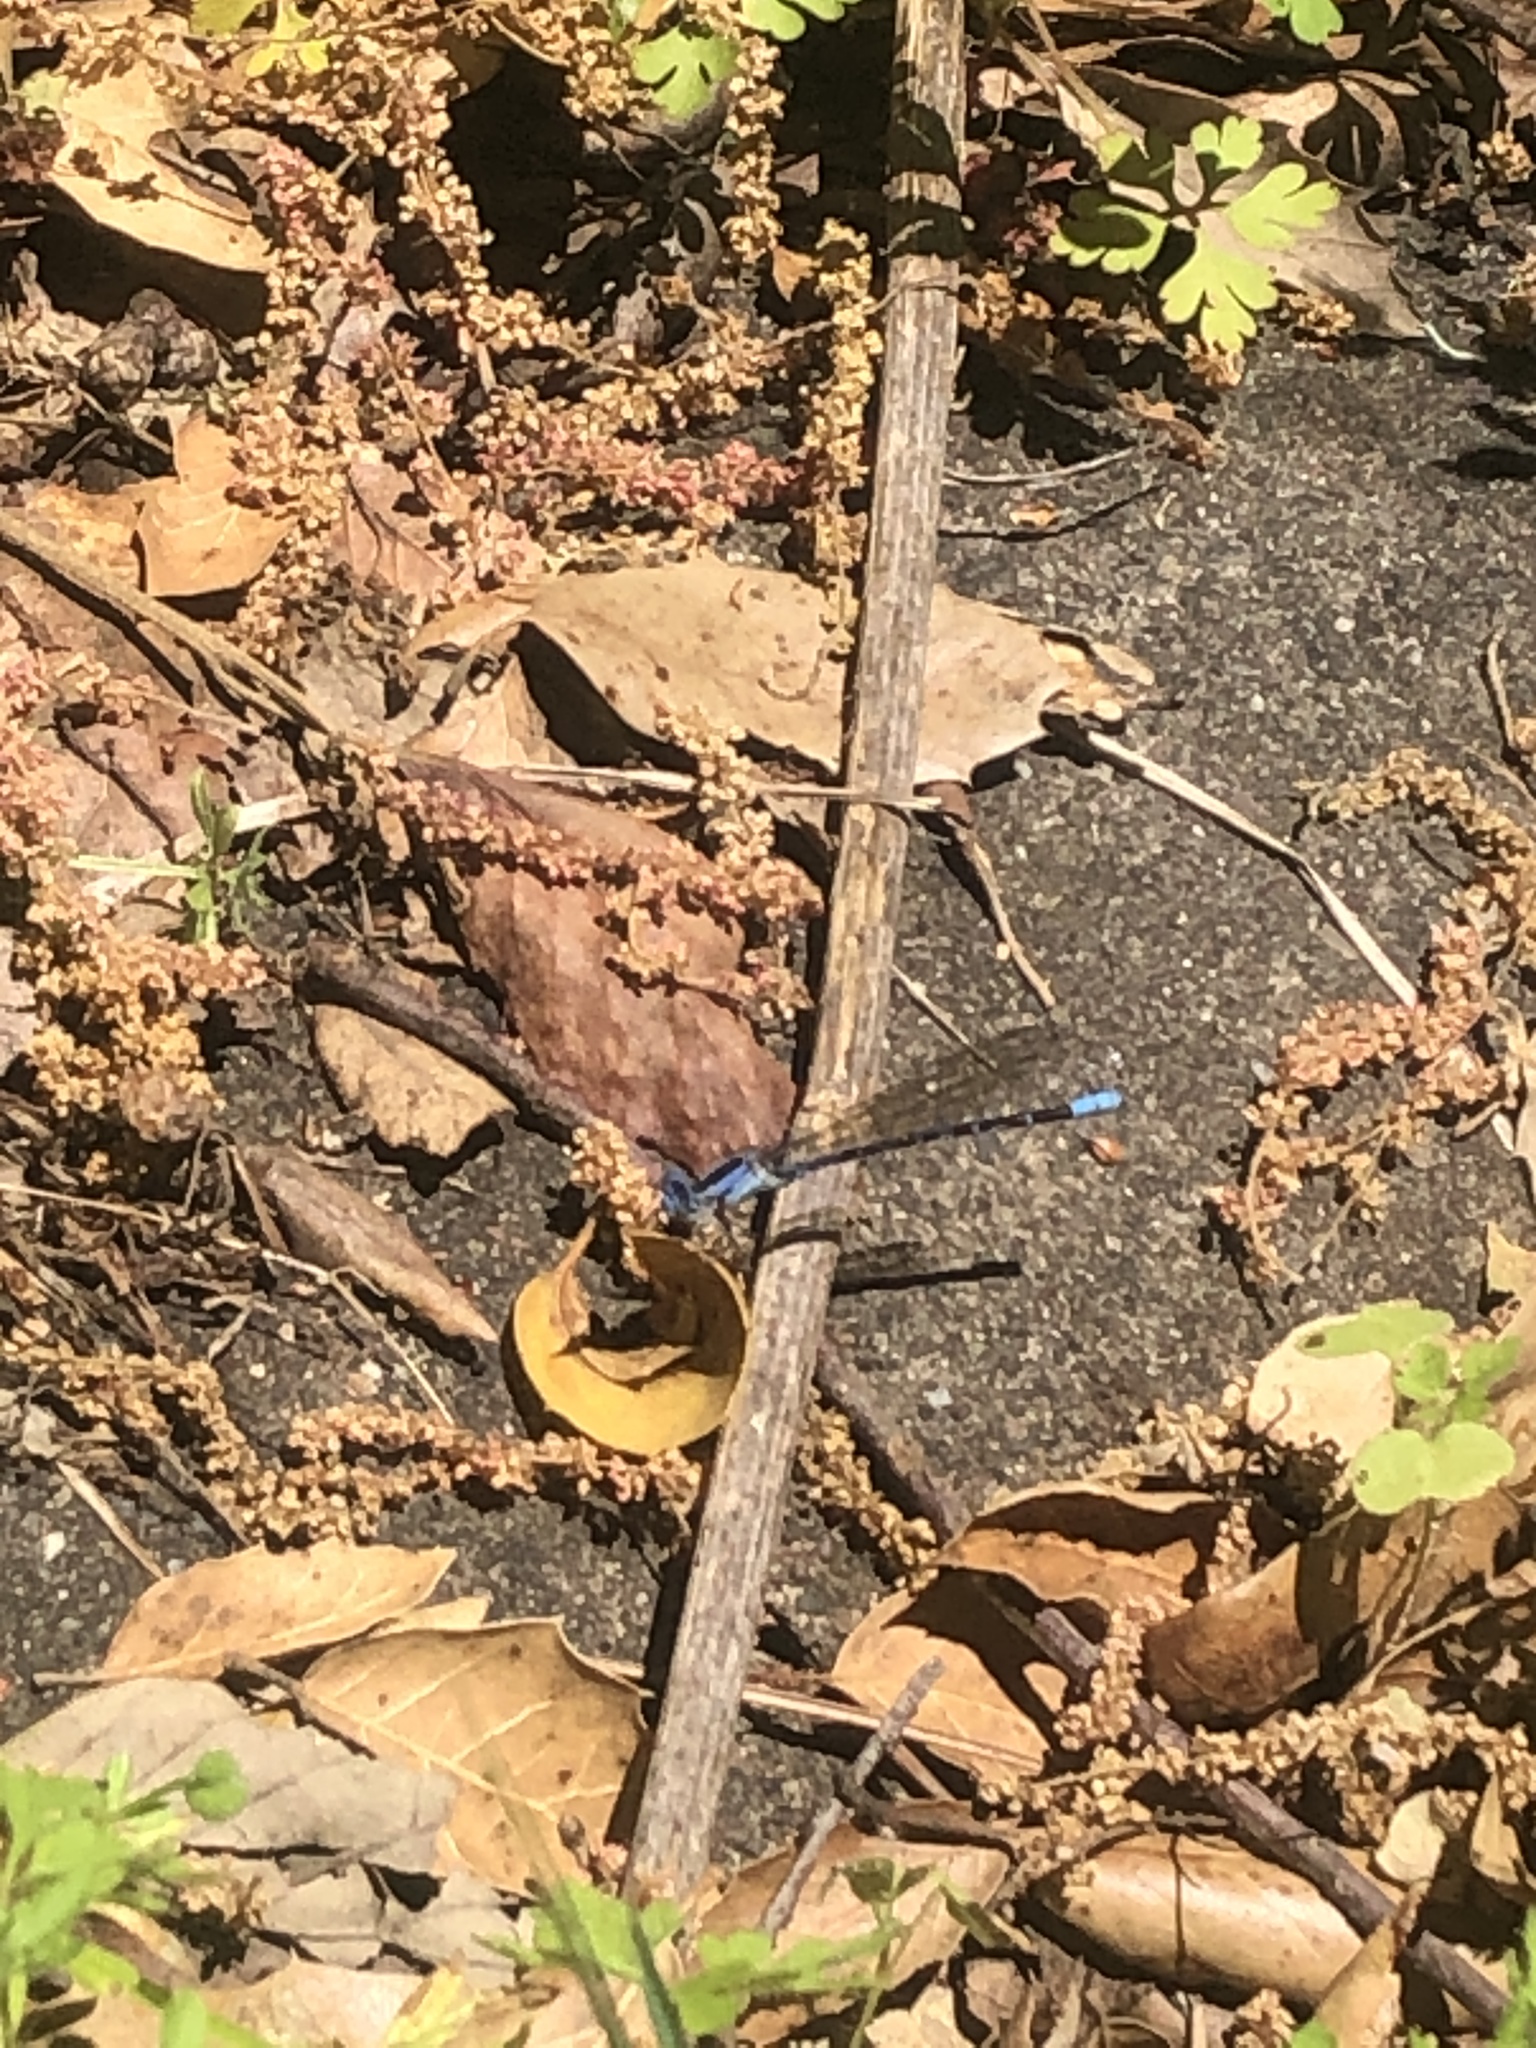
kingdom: Animalia
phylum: Arthropoda
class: Insecta
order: Odonata
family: Coenagrionidae
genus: Argia
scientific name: Argia vivida
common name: Vivid dancer
